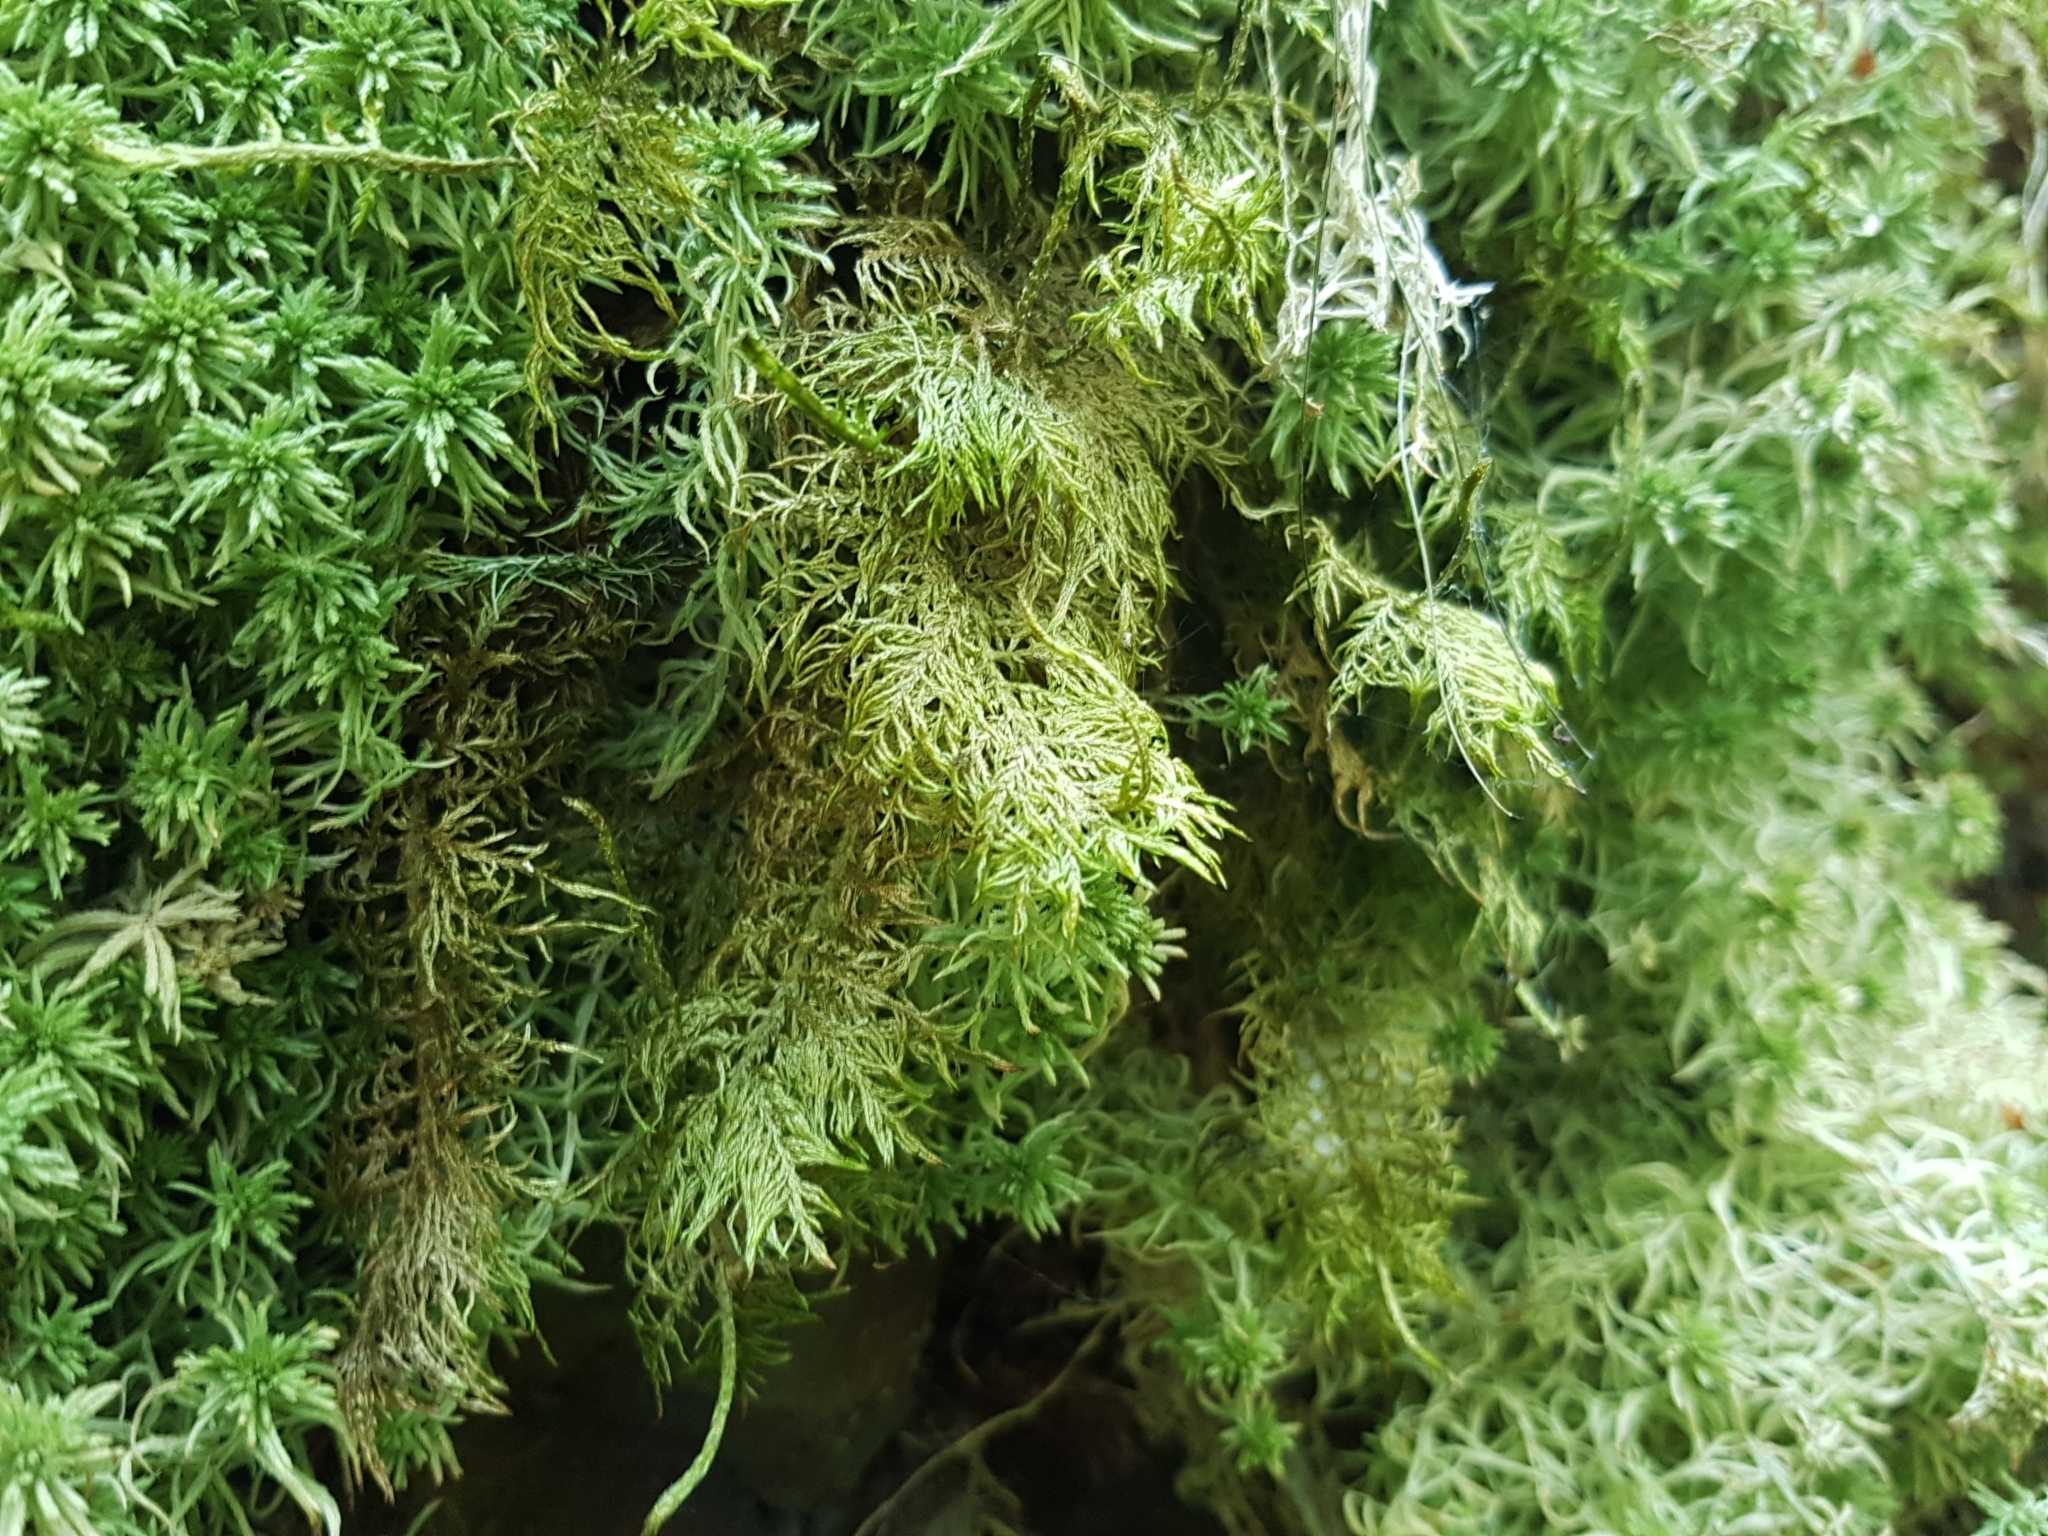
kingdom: Plantae
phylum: Bryophyta
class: Bryopsida
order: Hypnales
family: Hylocomiaceae
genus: Hylocomium
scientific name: Hylocomium splendens
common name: Stairstep moss
